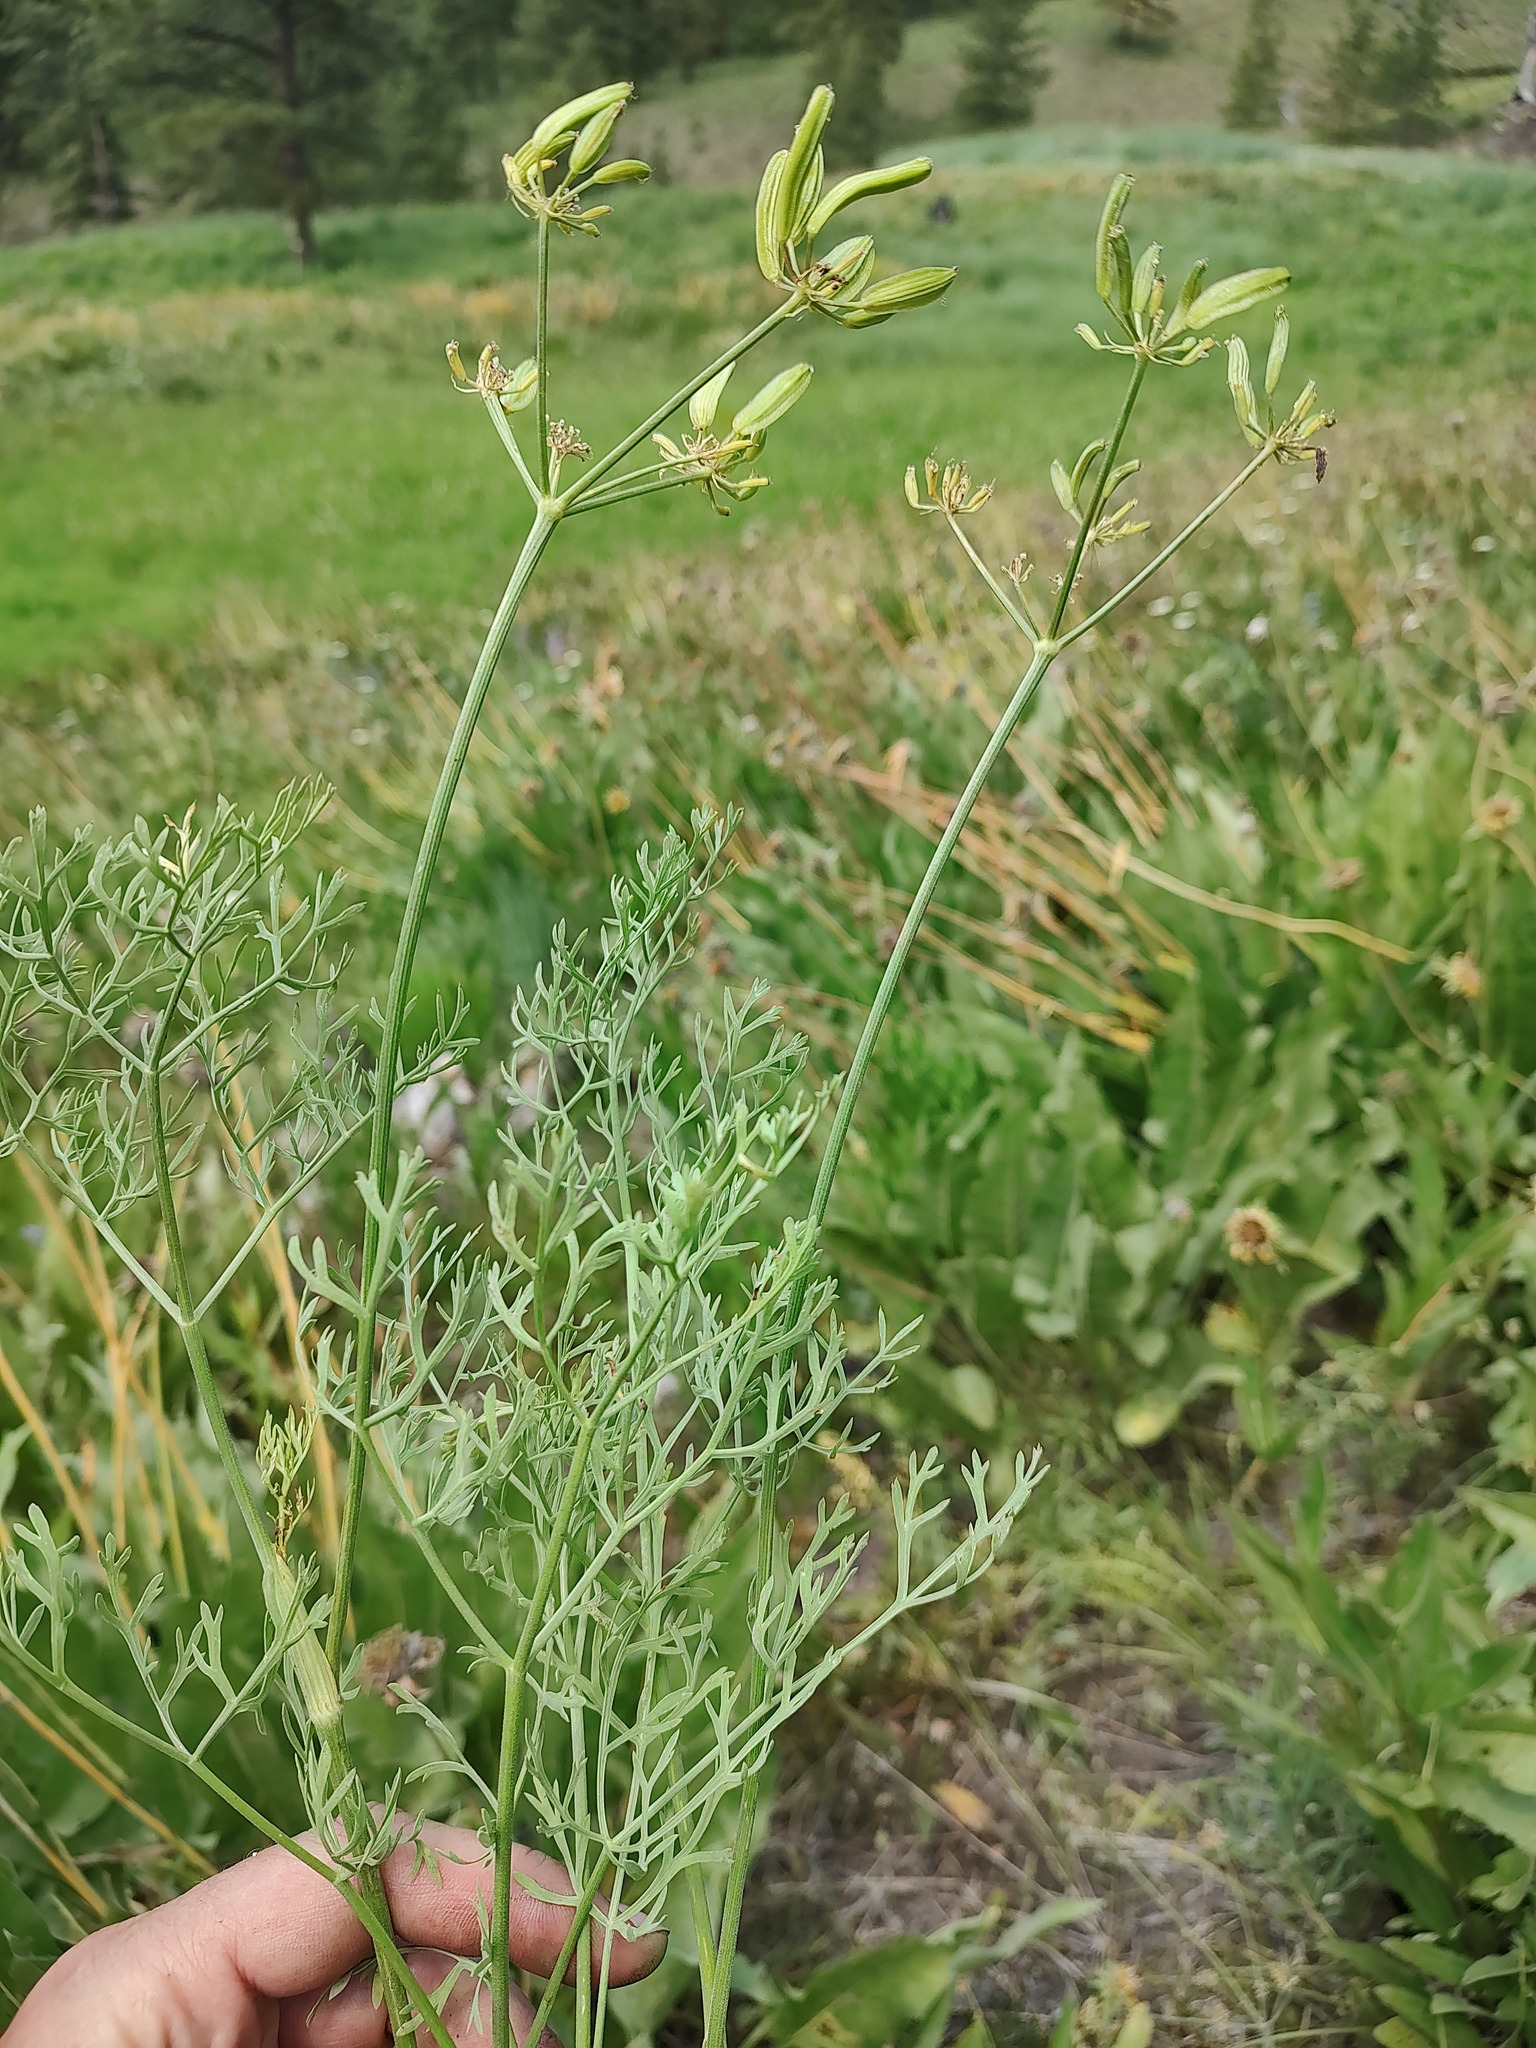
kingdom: Plantae
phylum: Tracheophyta
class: Magnoliopsida
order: Apiales
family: Apiaceae
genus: Lomatium
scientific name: Lomatium thompsonii
